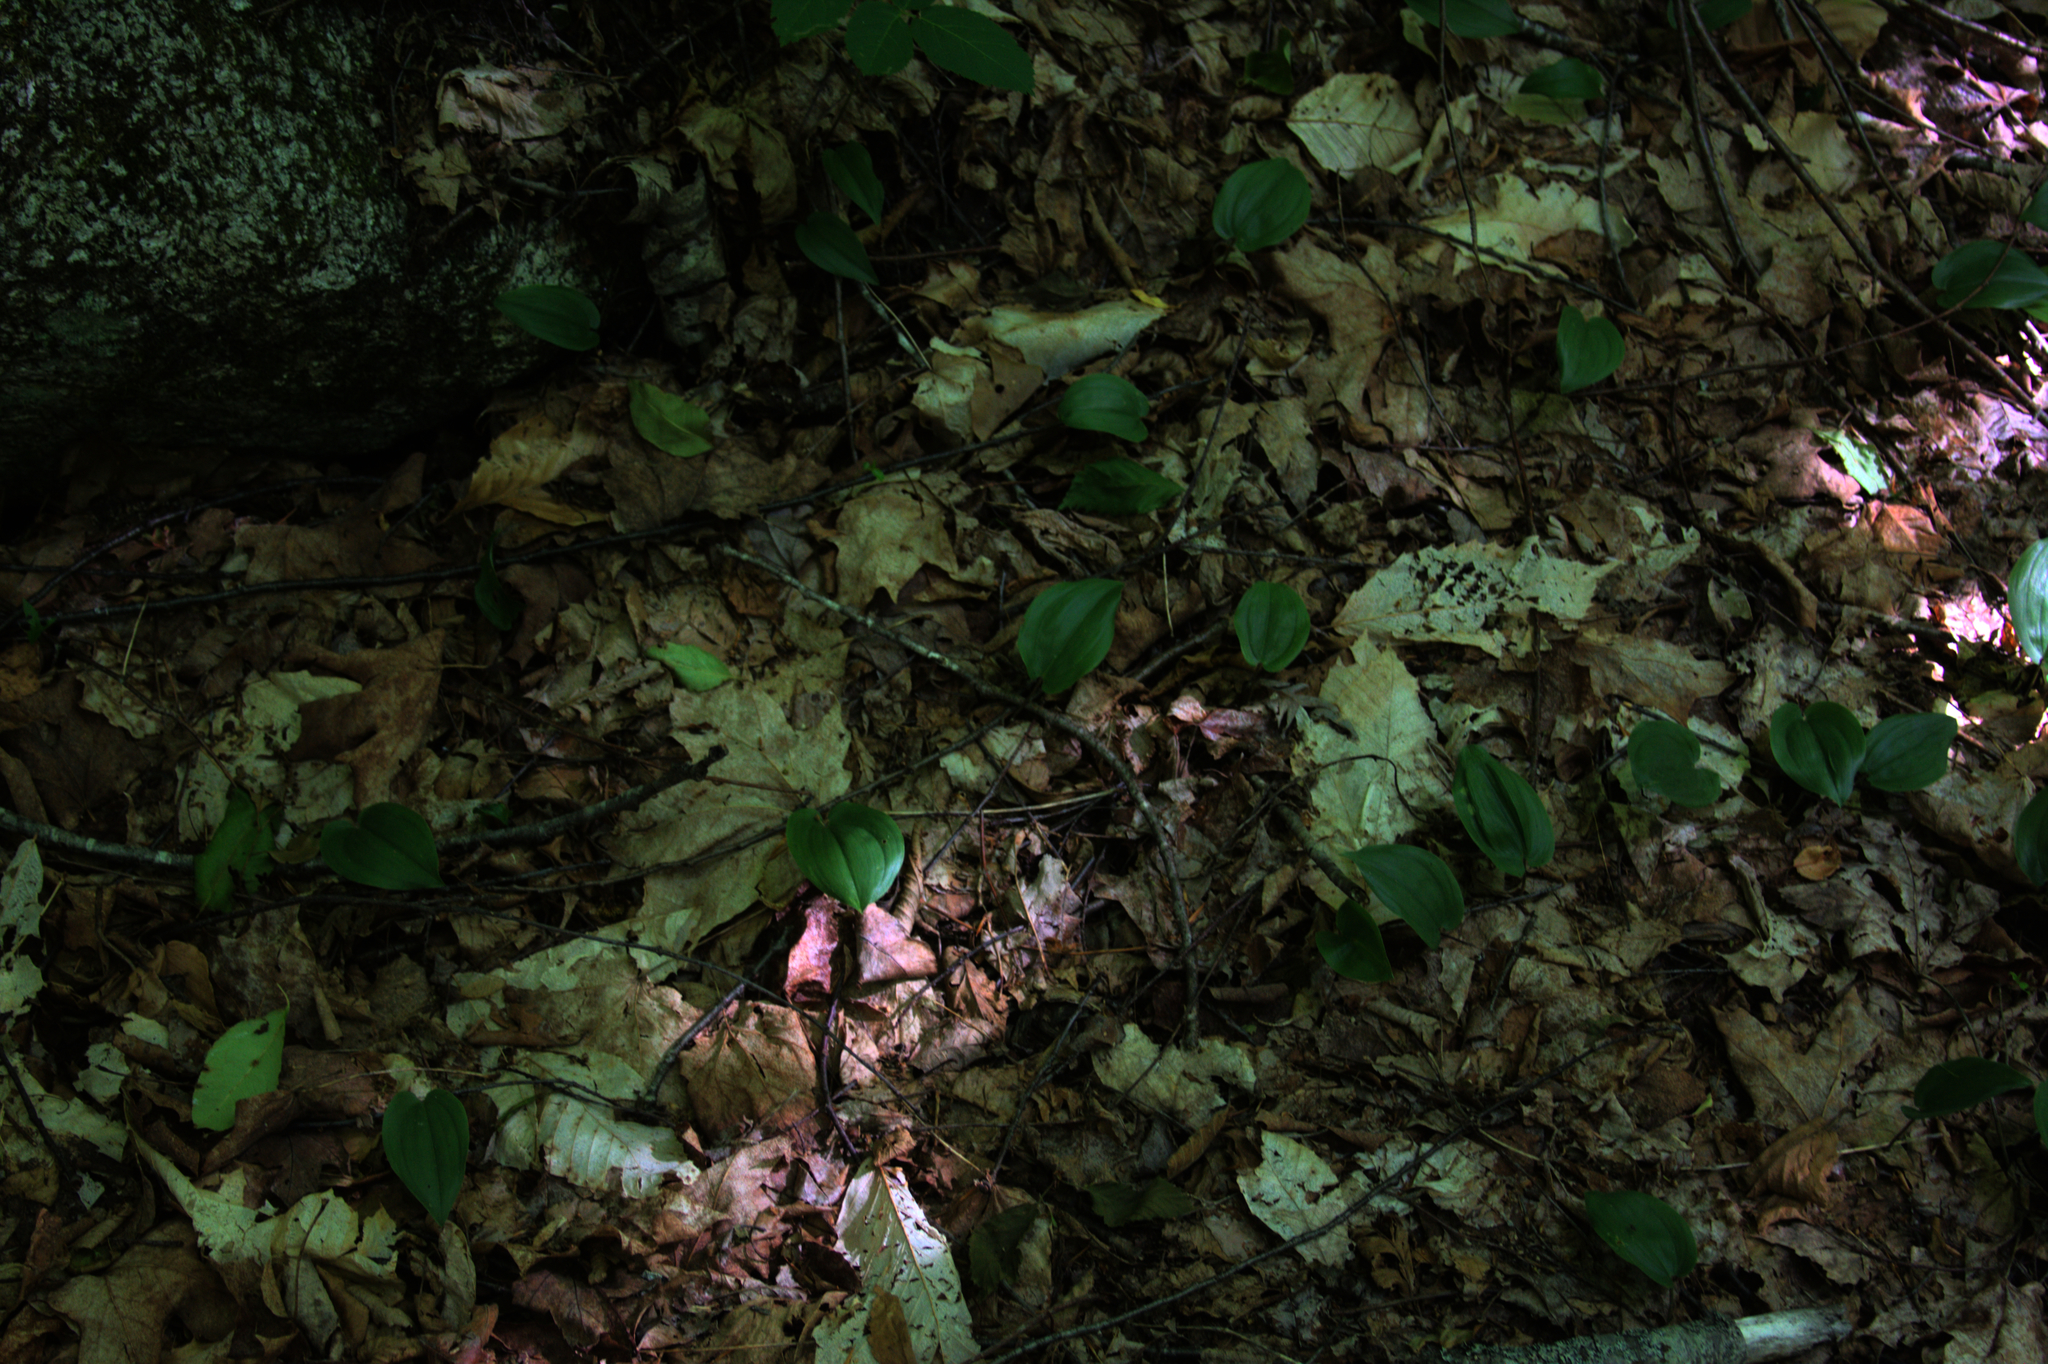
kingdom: Plantae
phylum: Tracheophyta
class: Liliopsida
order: Asparagales
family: Asparagaceae
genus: Maianthemum
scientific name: Maianthemum canadense
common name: False lily-of-the-valley
